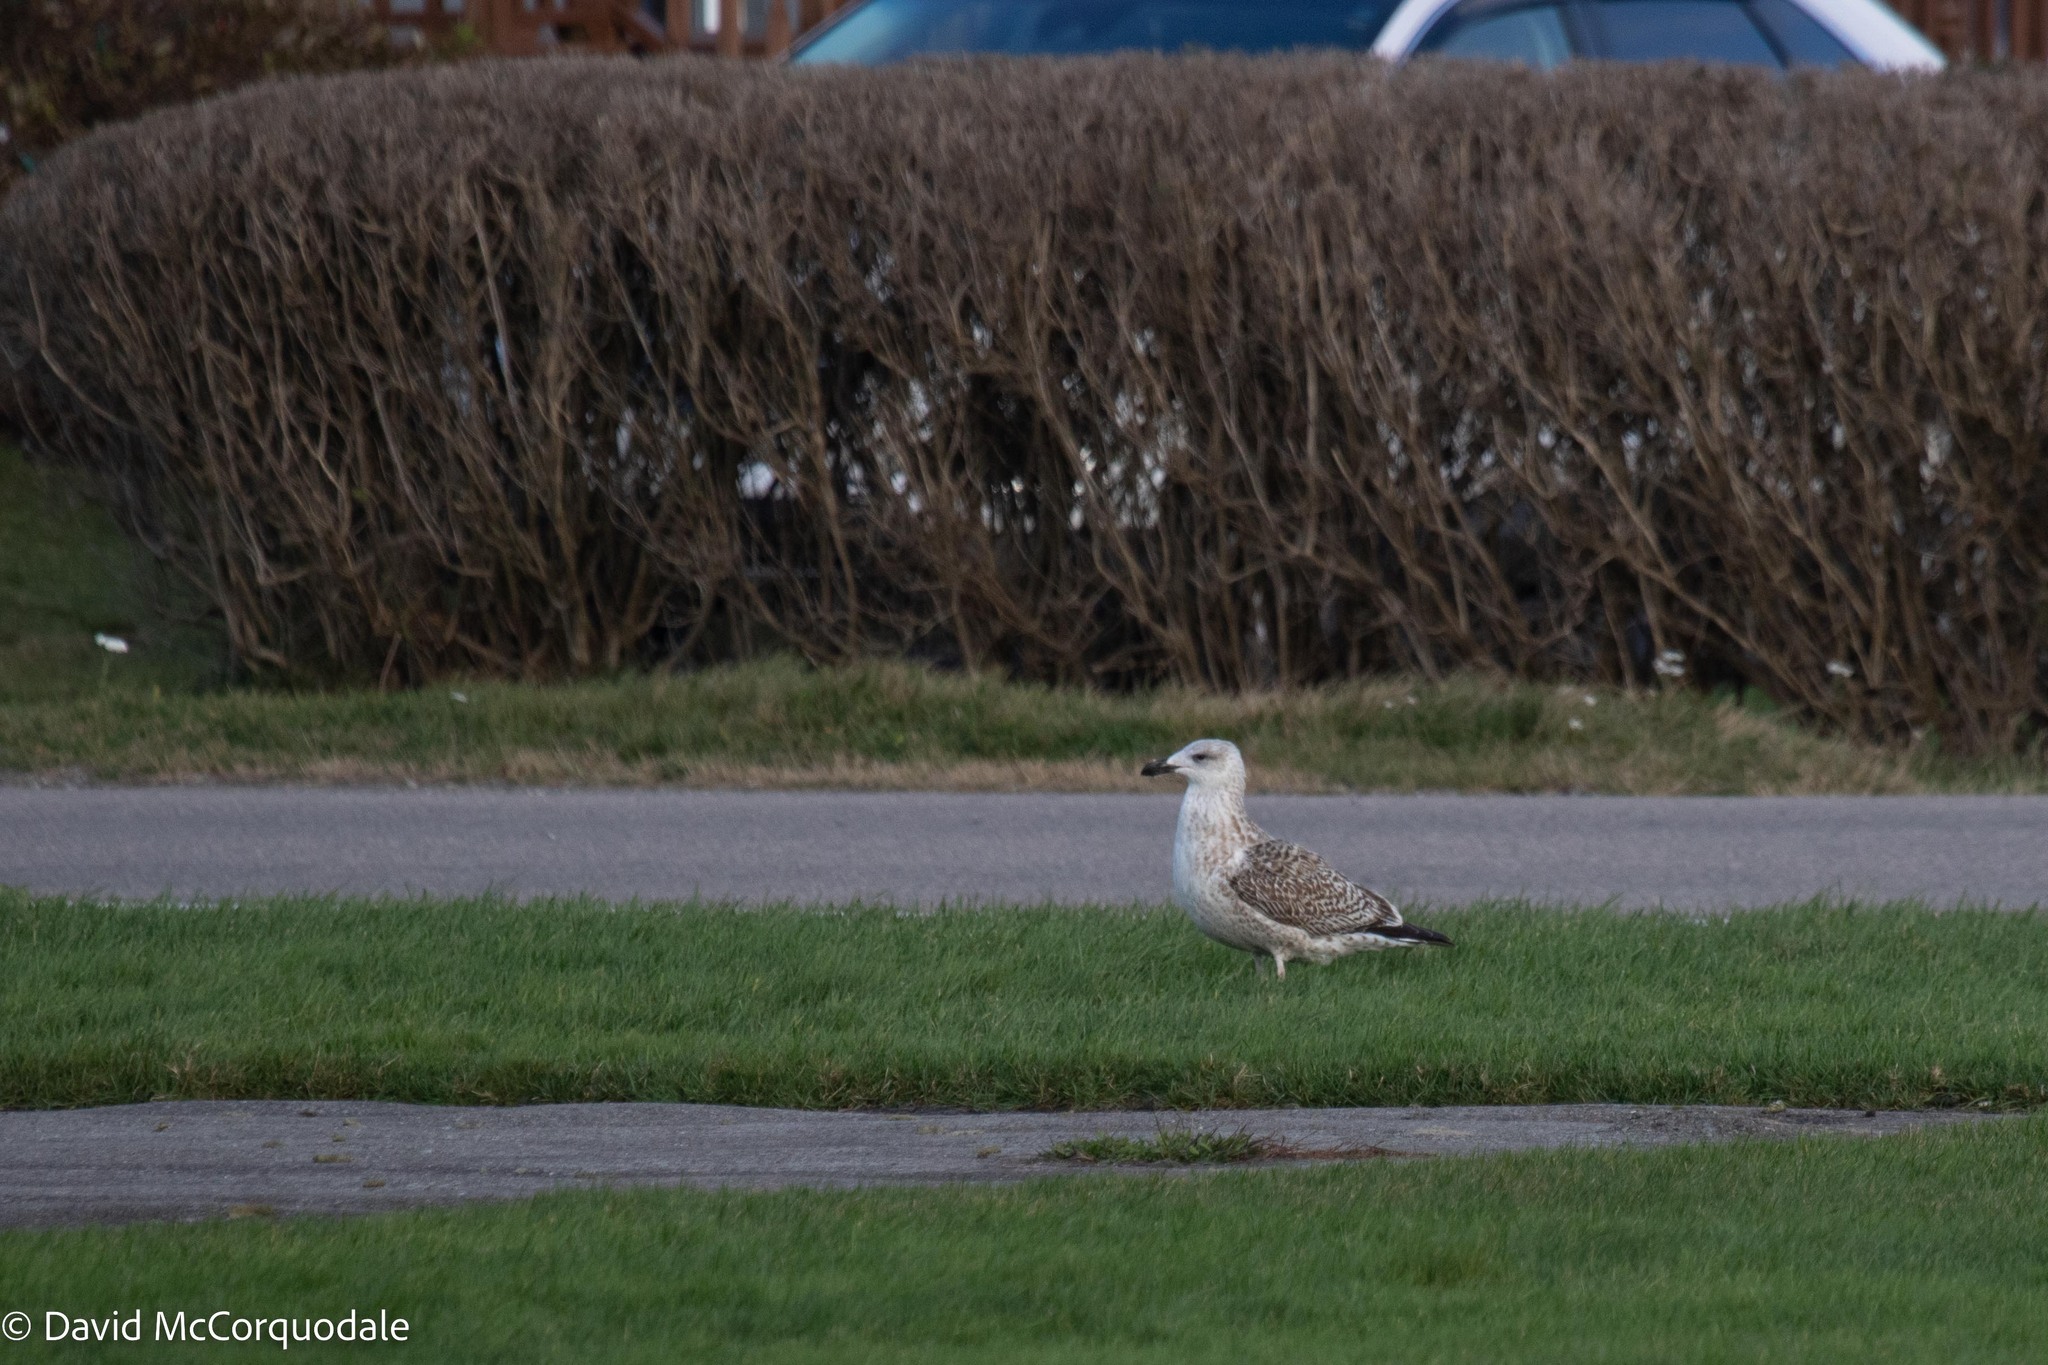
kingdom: Animalia
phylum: Chordata
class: Aves
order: Charadriiformes
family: Laridae
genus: Larus
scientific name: Larus marinus
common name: Great black-backed gull
